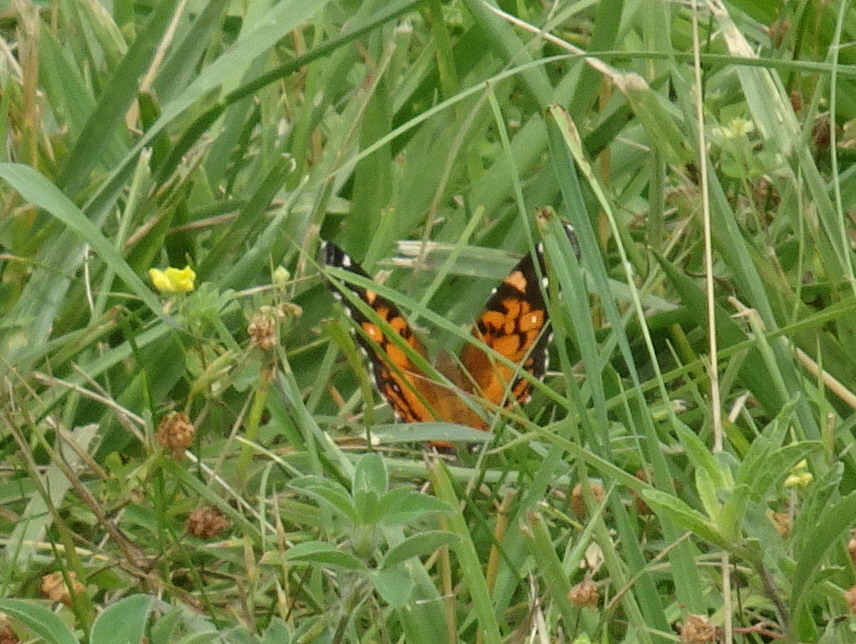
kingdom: Animalia
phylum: Arthropoda
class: Insecta
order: Lepidoptera
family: Nymphalidae
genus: Vanessa
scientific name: Vanessa virginiensis
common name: American lady
